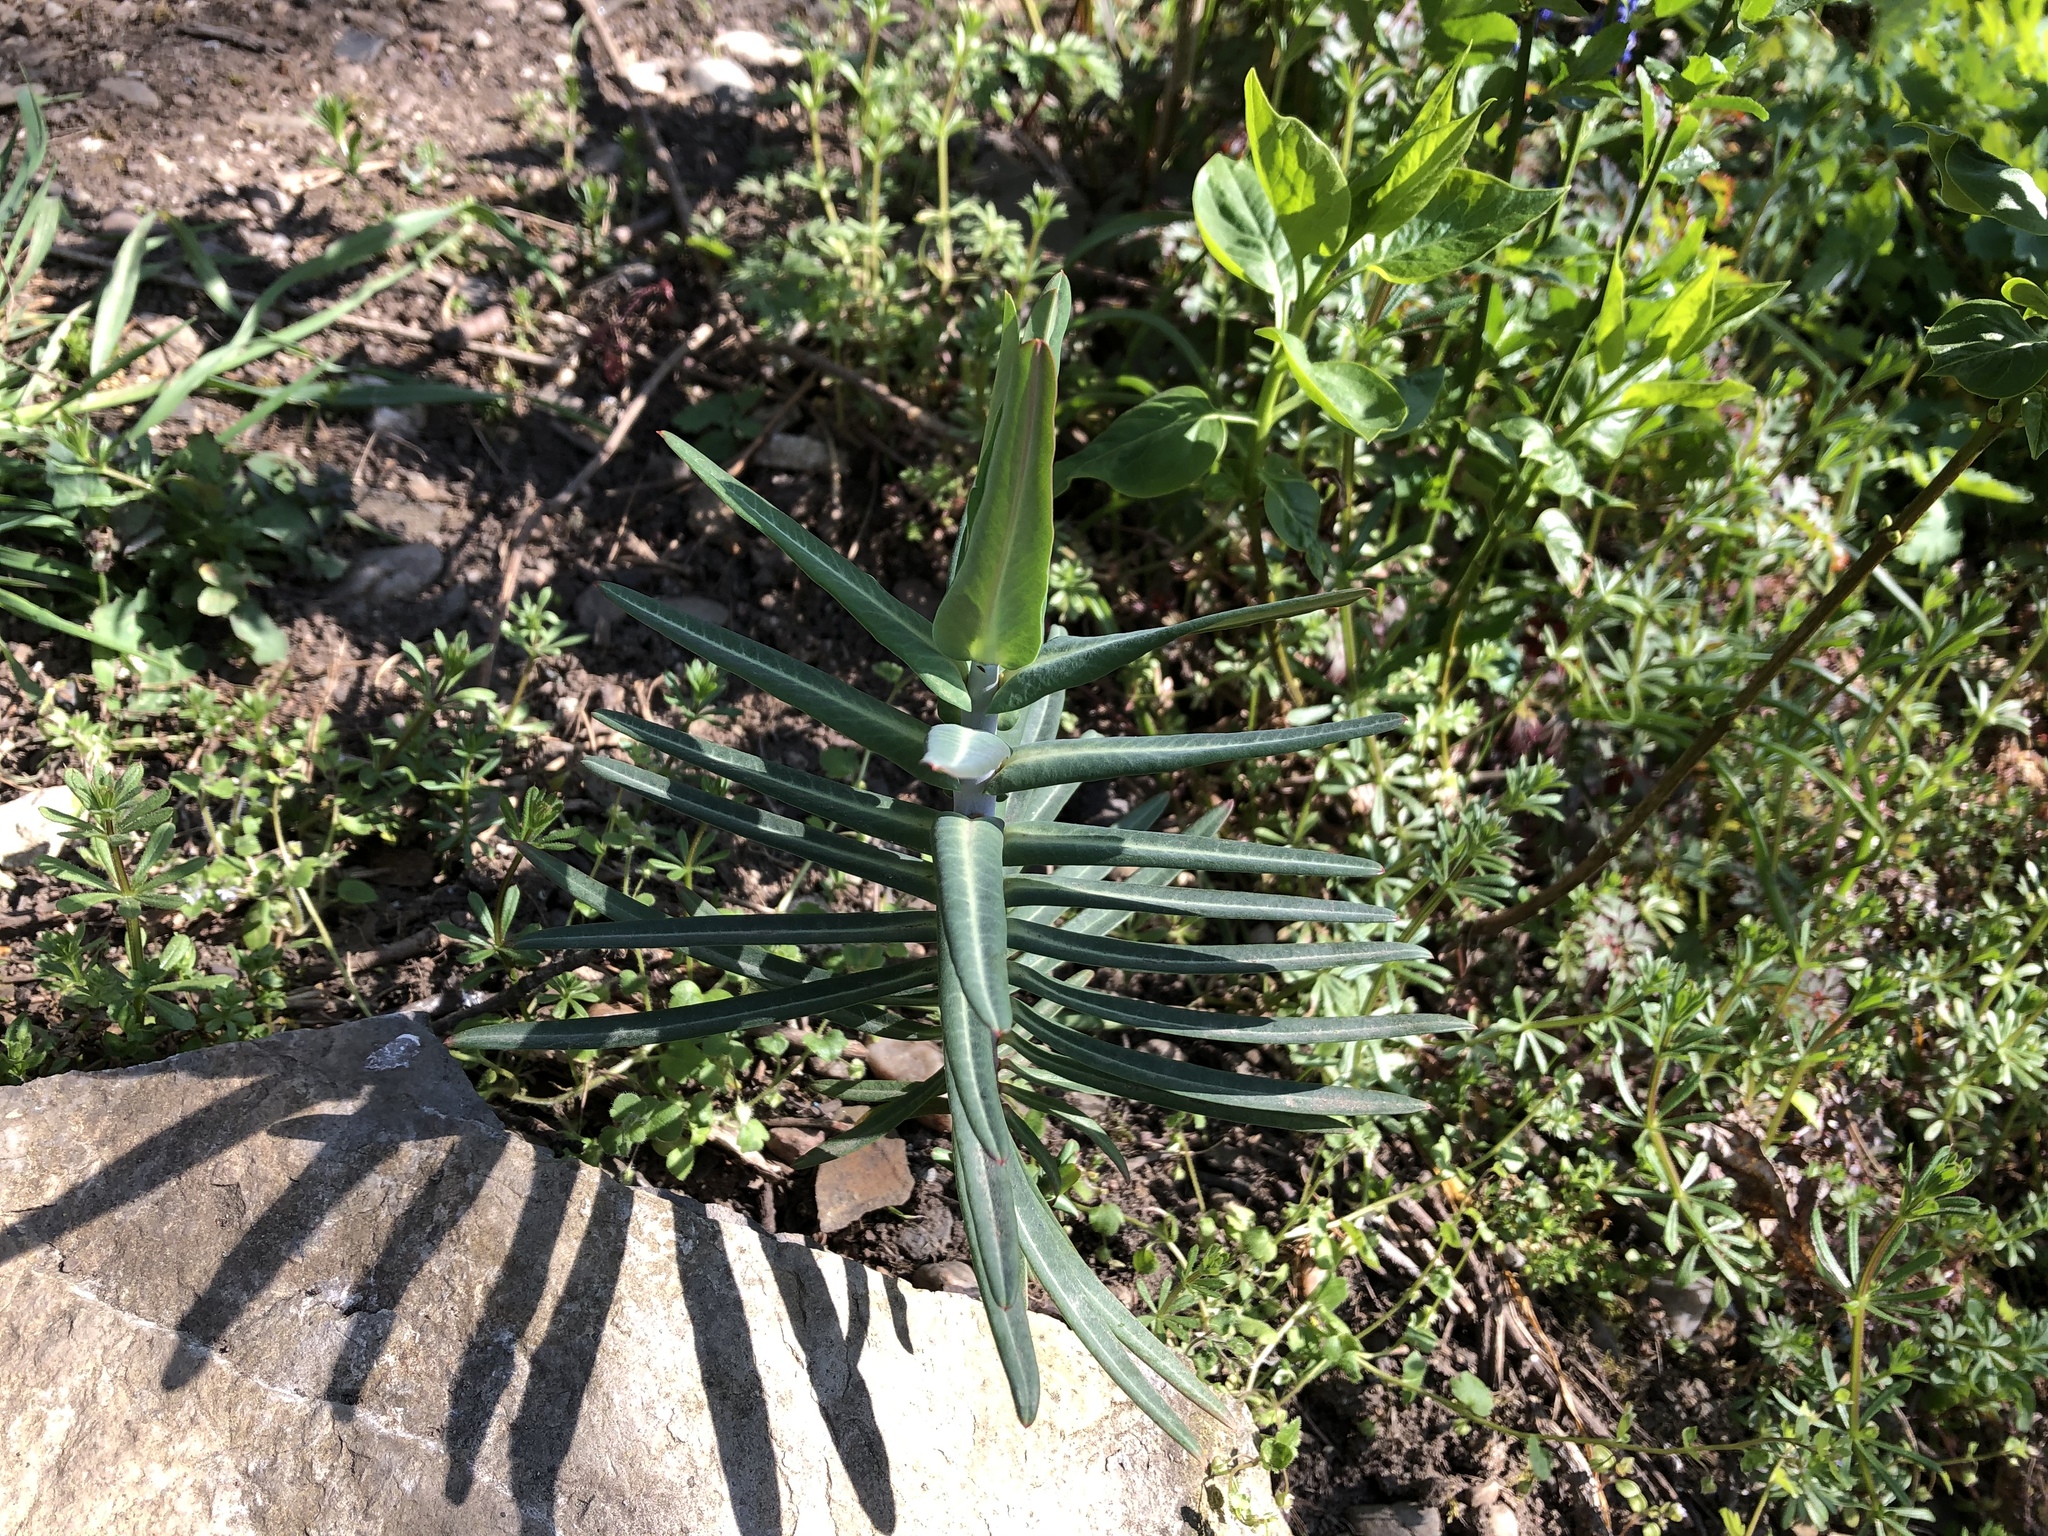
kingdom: Plantae
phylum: Tracheophyta
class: Magnoliopsida
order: Malpighiales
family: Euphorbiaceae
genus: Euphorbia
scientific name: Euphorbia lathyris
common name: Caper spurge
